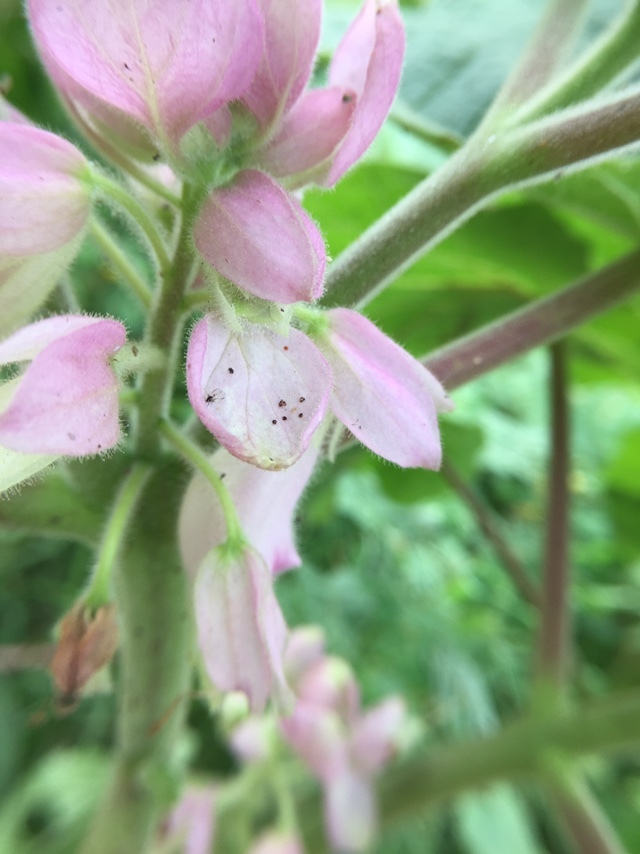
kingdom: Plantae
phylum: Tracheophyta
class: Magnoliopsida
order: Lamiales
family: Martyniaceae
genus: Martynia
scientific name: Martynia annua
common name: Tiger's-claw
